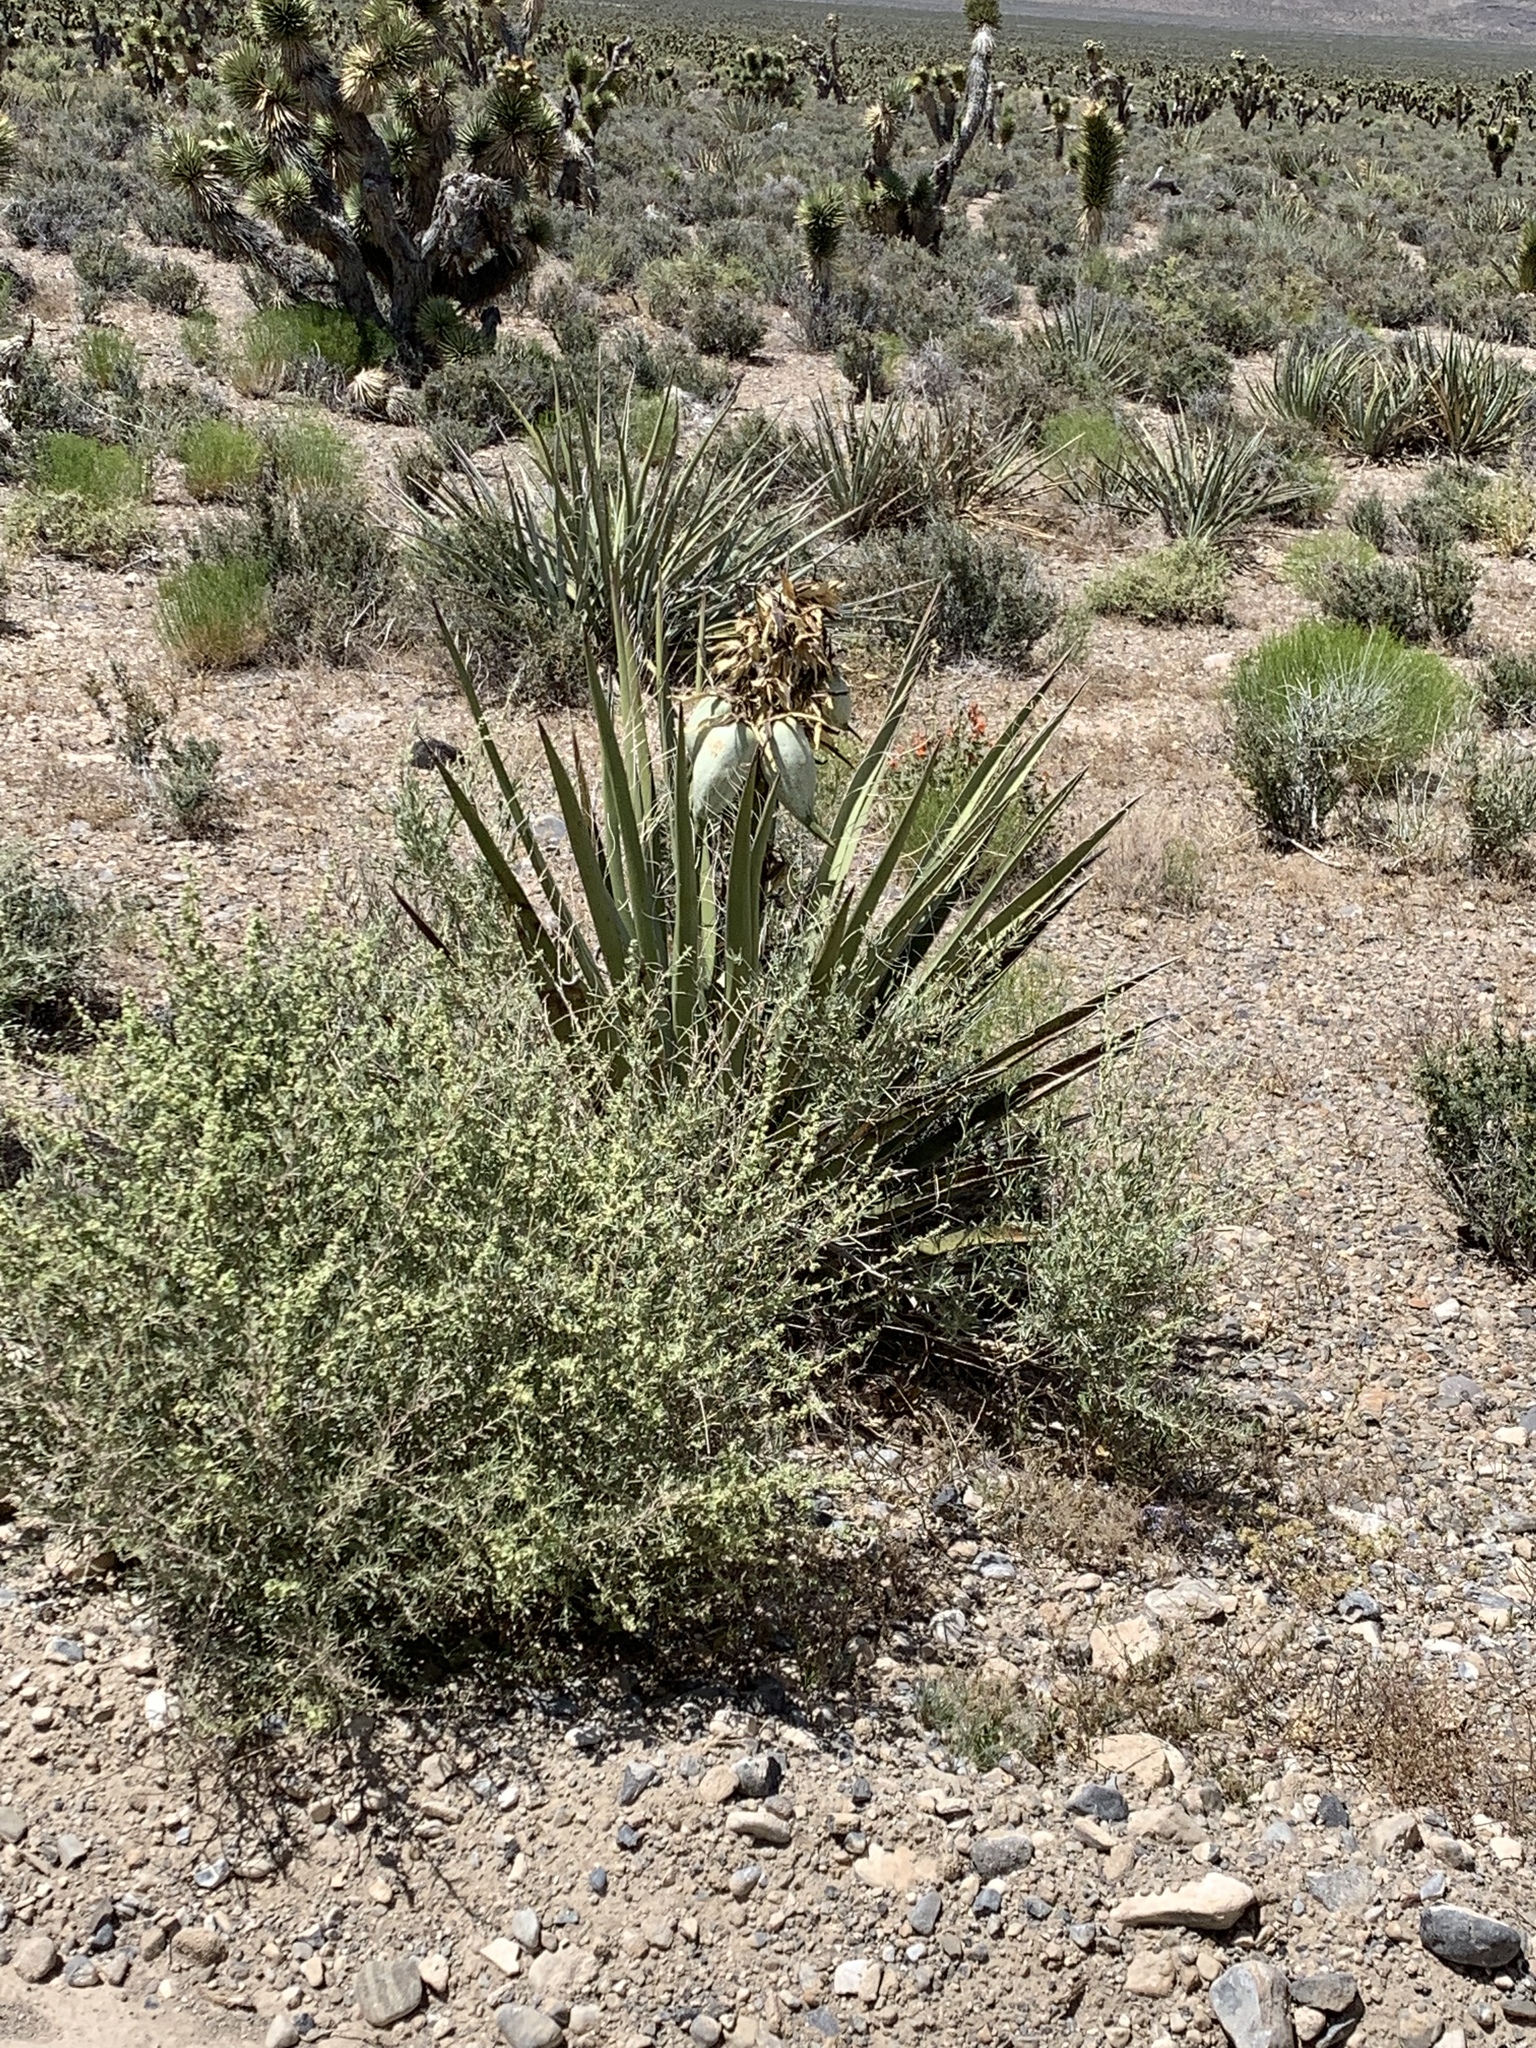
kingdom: Plantae
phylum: Tracheophyta
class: Liliopsida
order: Asparagales
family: Asparagaceae
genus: Yucca
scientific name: Yucca baccata
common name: Banana yucca
